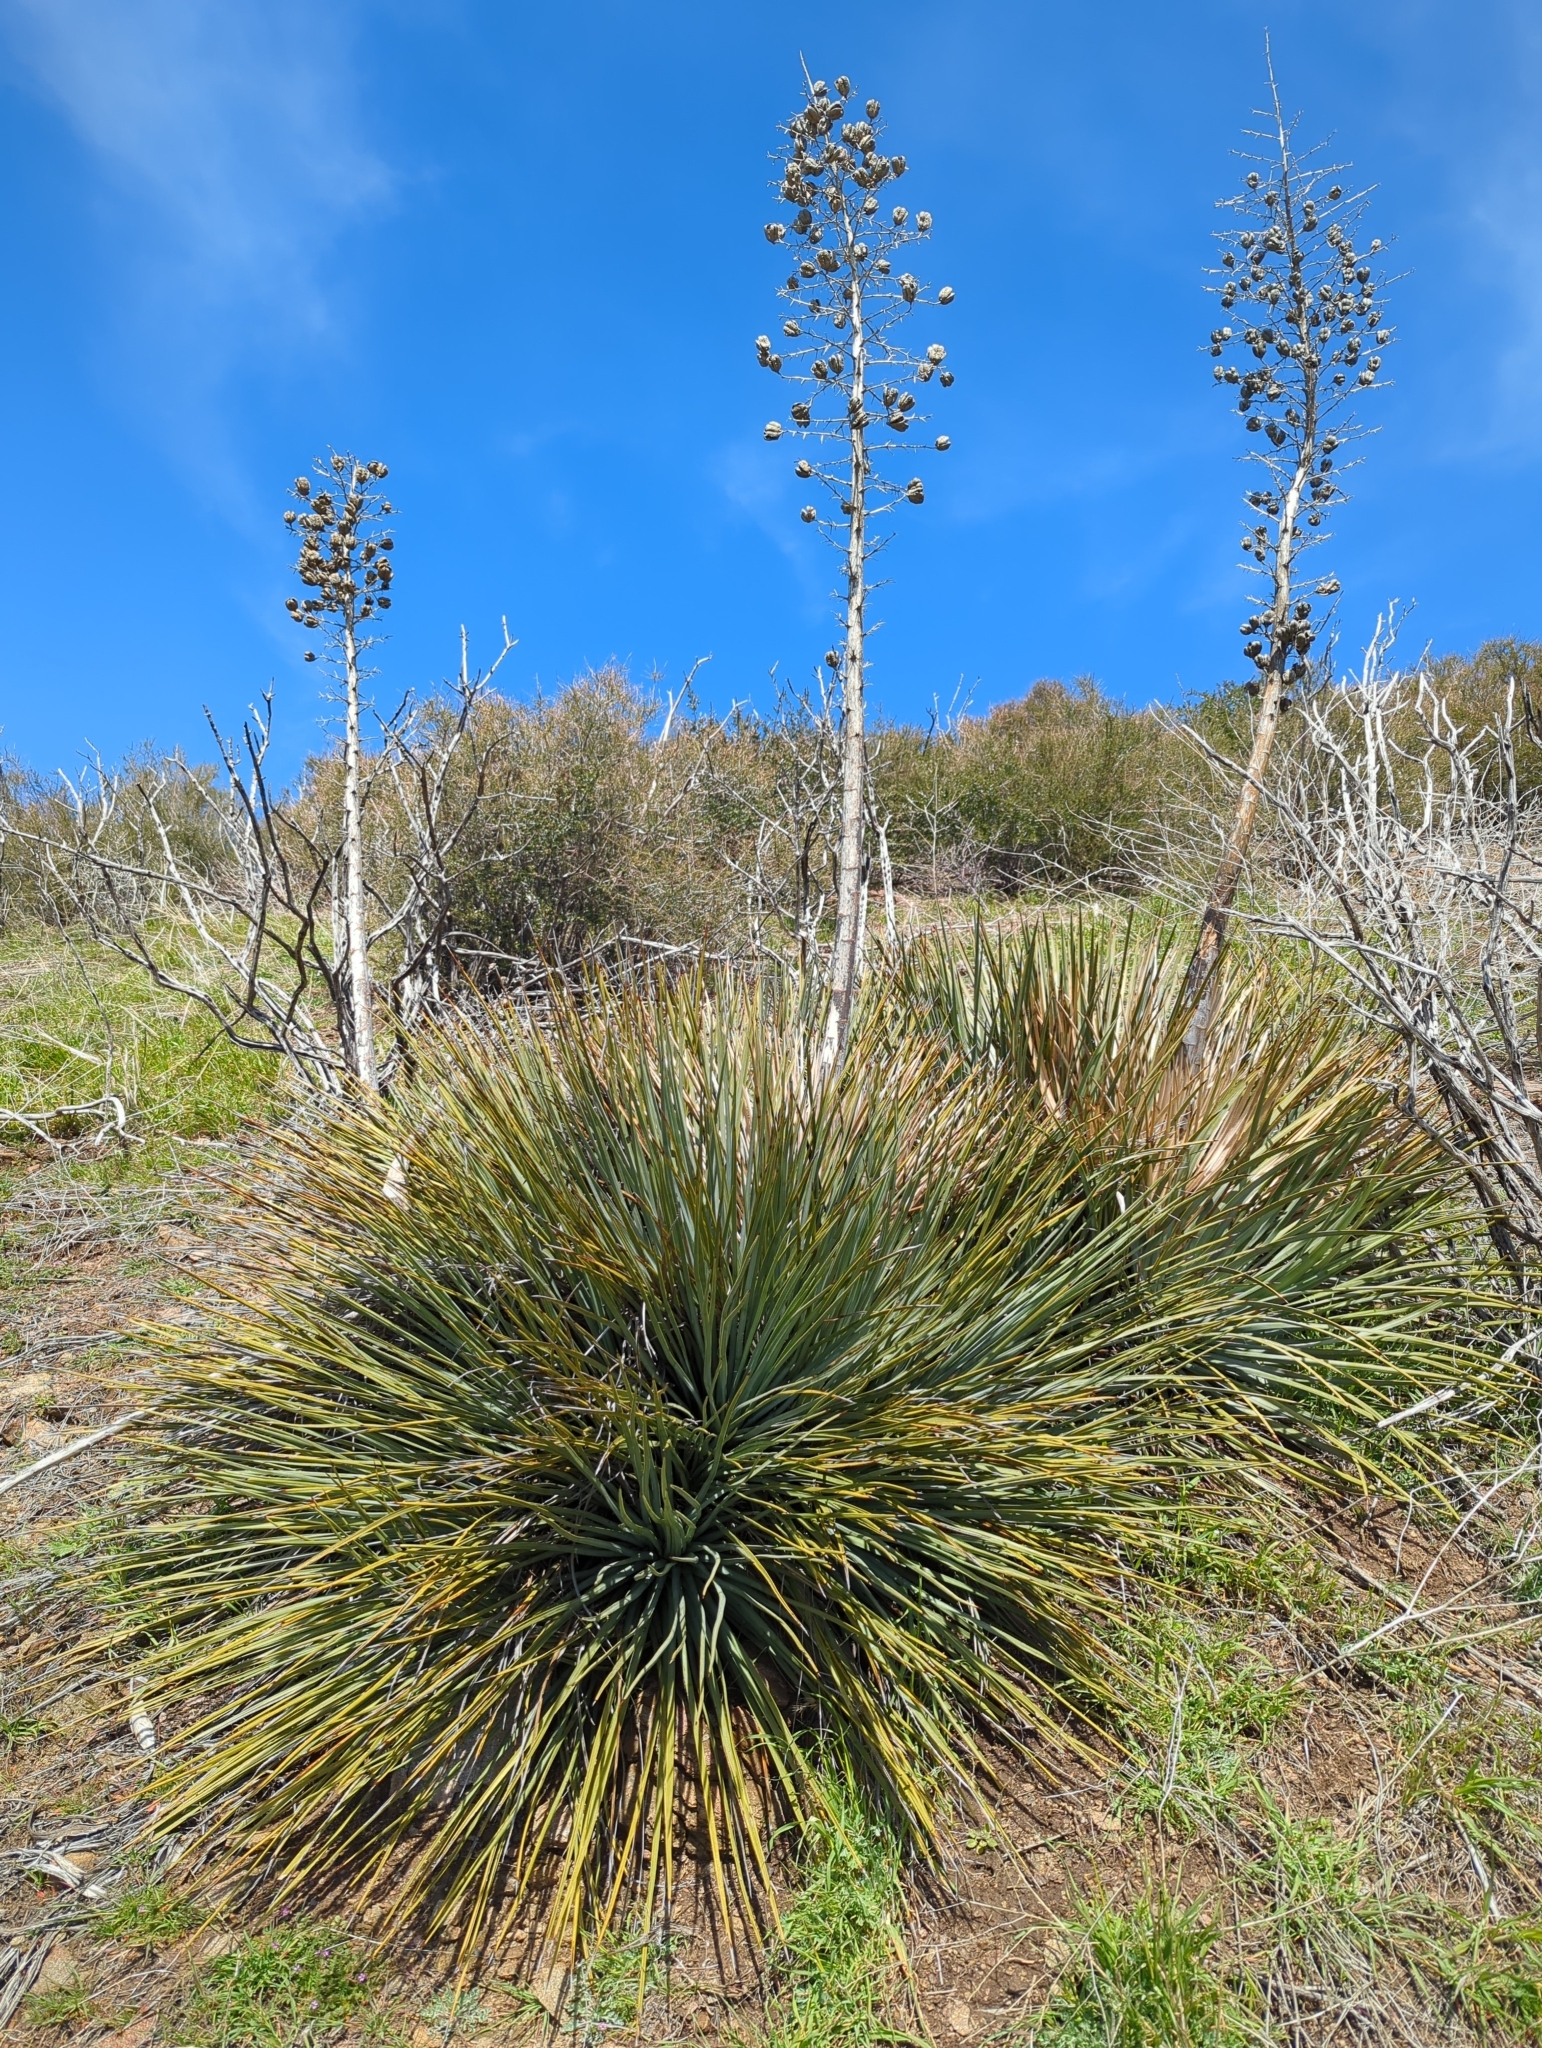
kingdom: Plantae
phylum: Tracheophyta
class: Liliopsida
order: Asparagales
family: Asparagaceae
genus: Hesperoyucca
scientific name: Hesperoyucca whipplei
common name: Our lord's-candle
